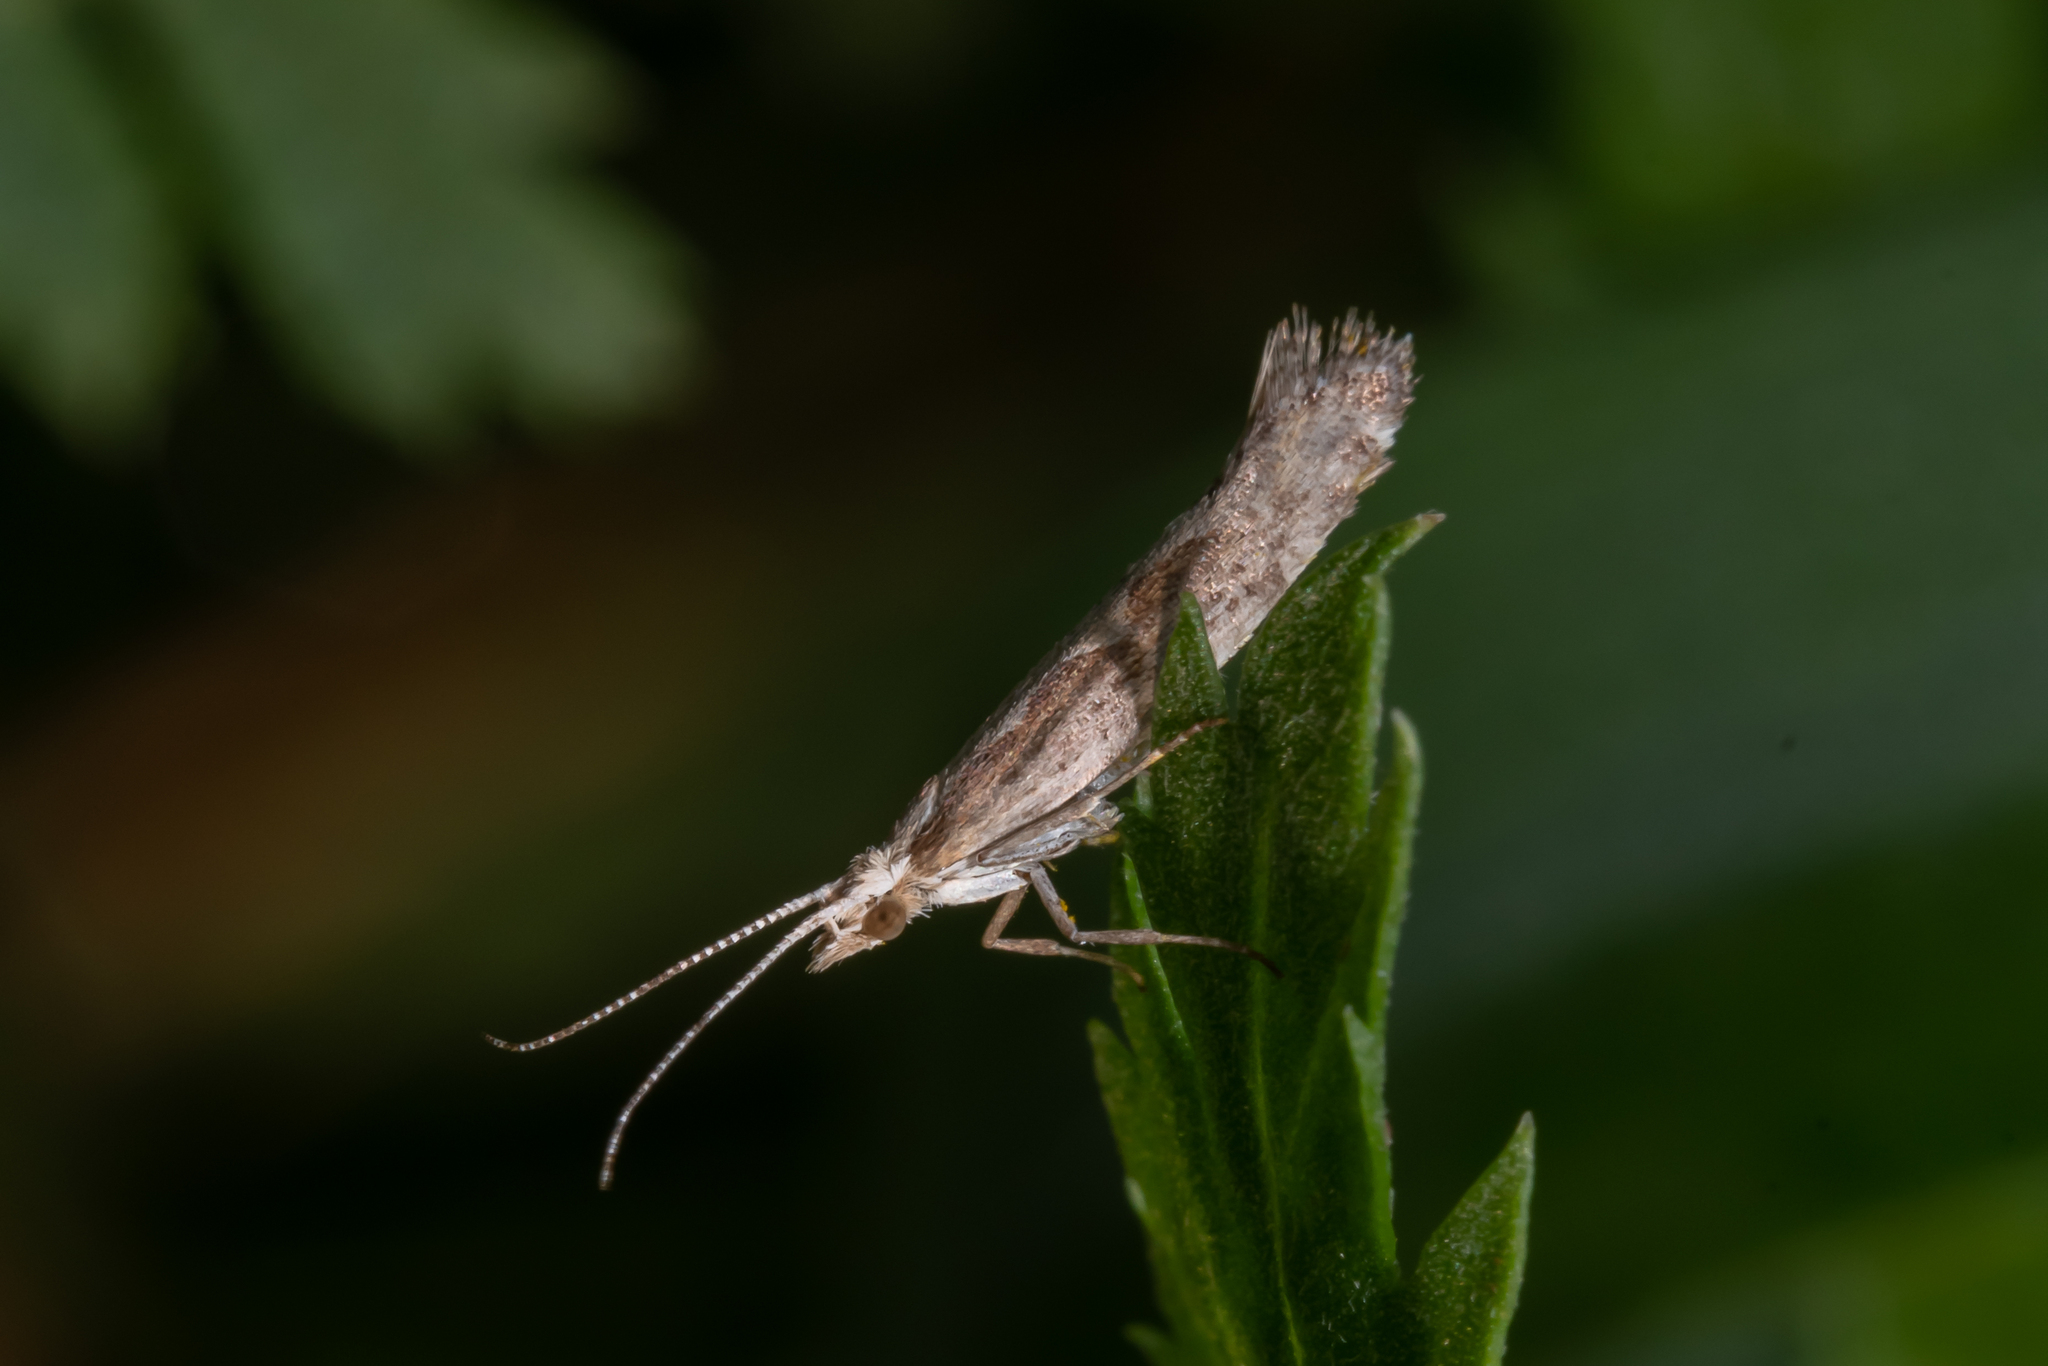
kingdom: Animalia
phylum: Arthropoda
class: Insecta
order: Lepidoptera
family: Plutellidae
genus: Plutella
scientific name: Plutella xylostella
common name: Diamond-back moth
